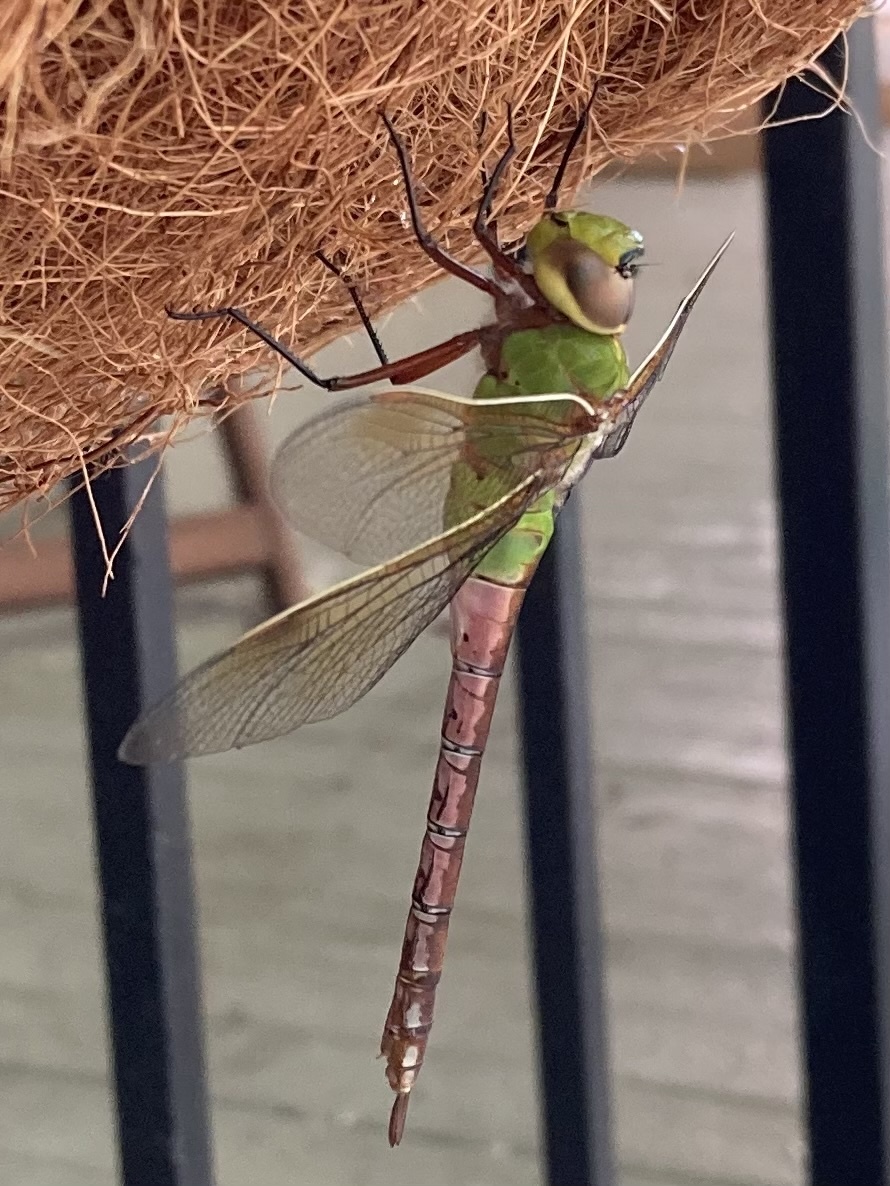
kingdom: Animalia
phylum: Arthropoda
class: Insecta
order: Odonata
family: Aeshnidae
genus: Anax
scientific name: Anax junius
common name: Common green darner
